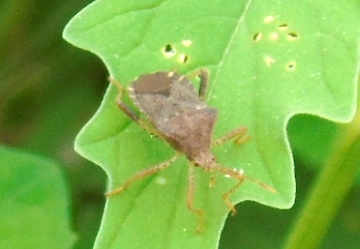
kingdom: Animalia
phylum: Arthropoda
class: Insecta
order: Hemiptera
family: Coreidae
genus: Anasa
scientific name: Anasa scorbutica
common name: Squash bug
